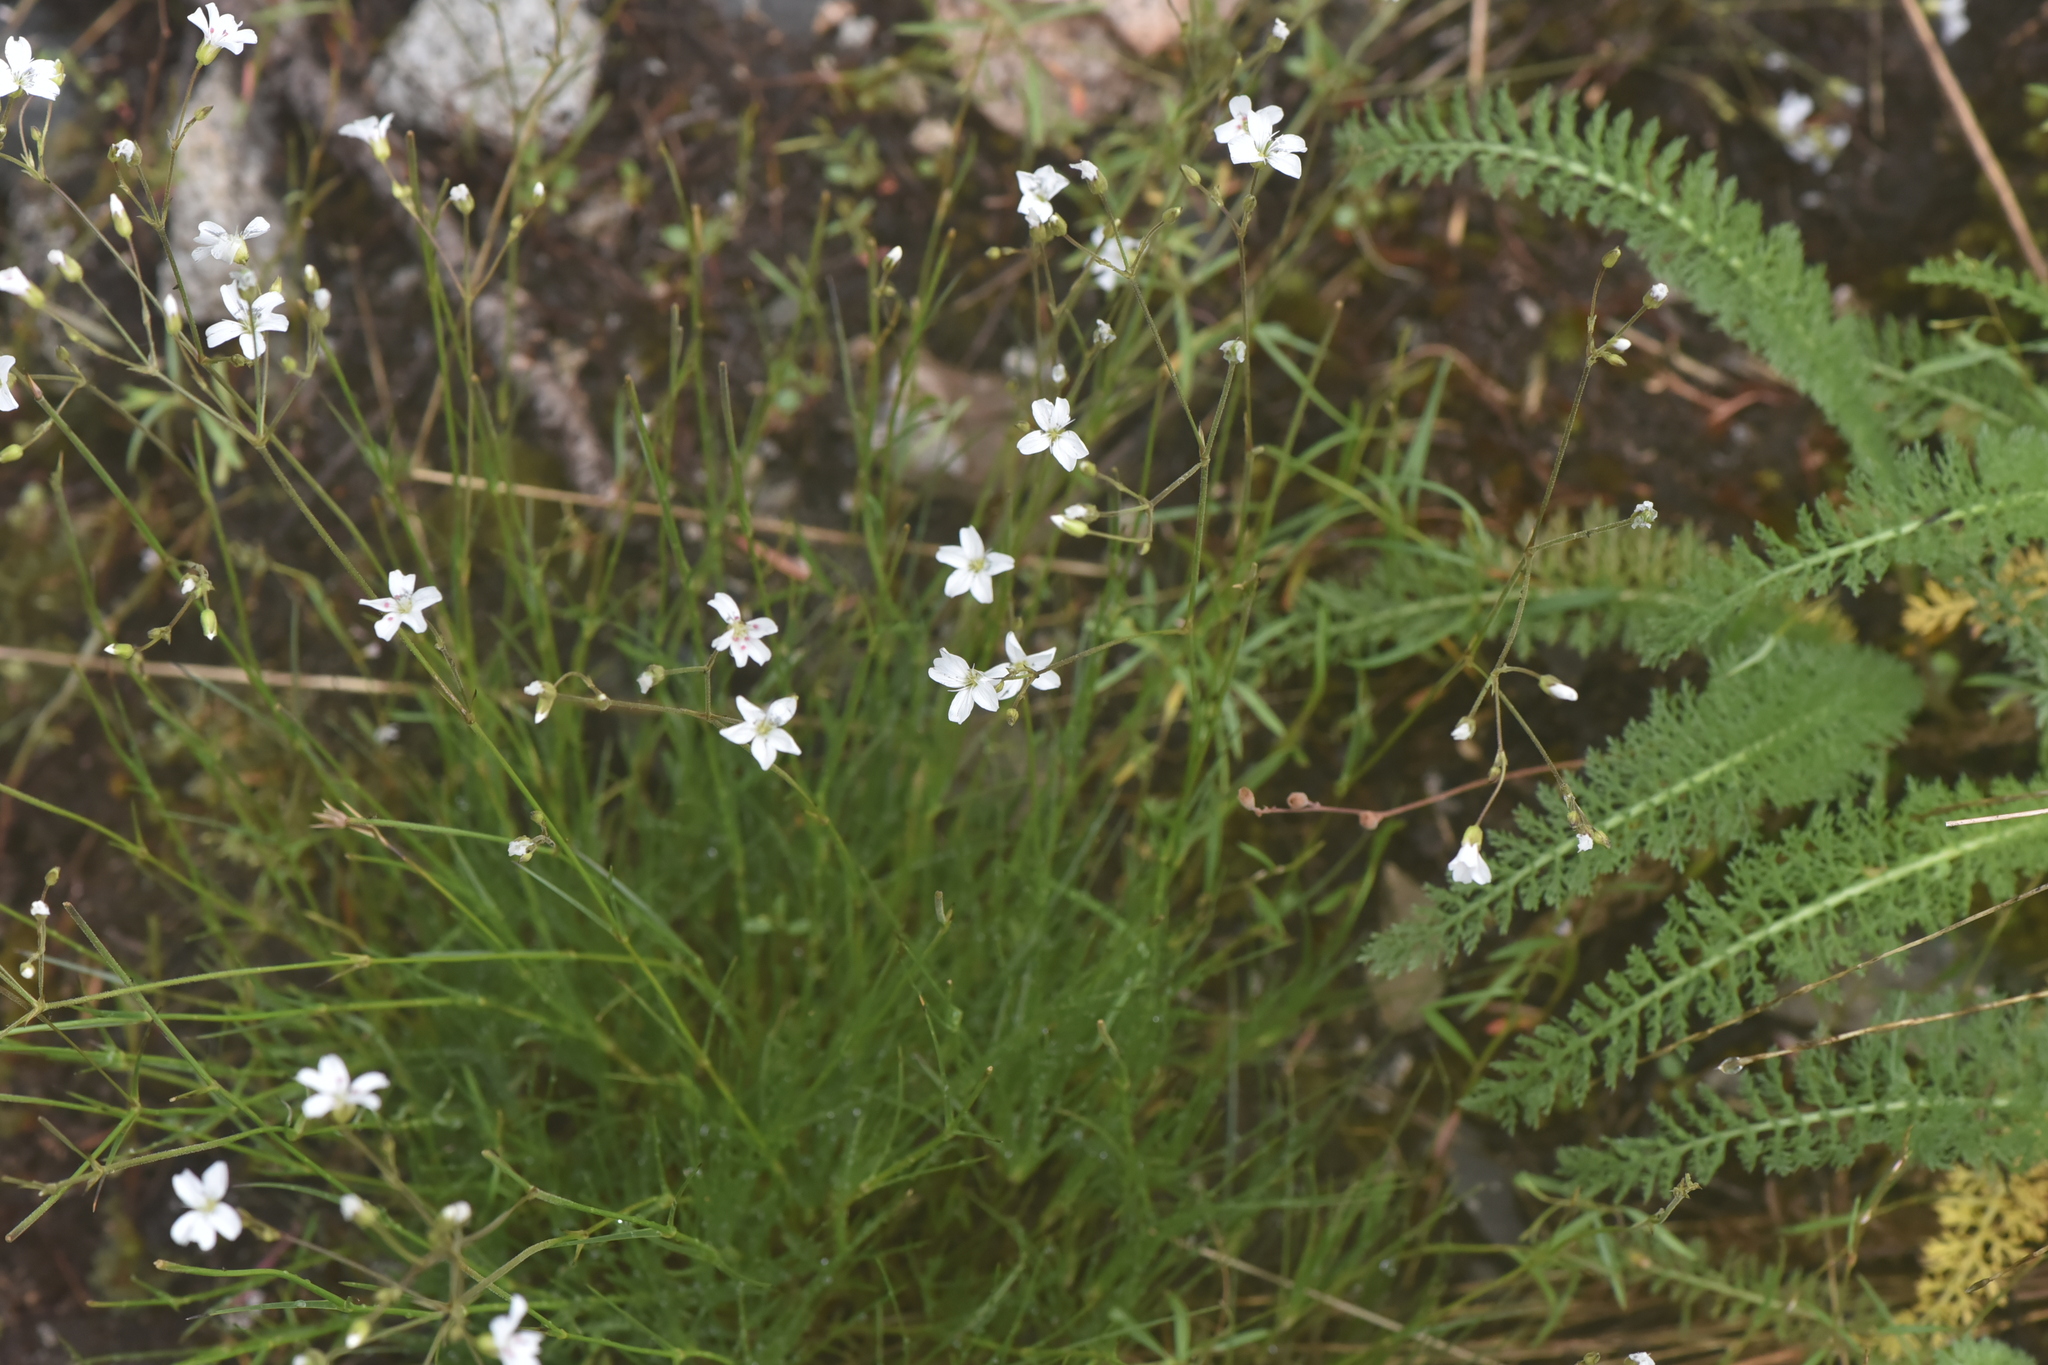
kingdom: Plantae
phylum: Tracheophyta
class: Magnoliopsida
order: Asterales
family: Asteraceae
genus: Achillea
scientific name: Achillea millefolium
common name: Yarrow
